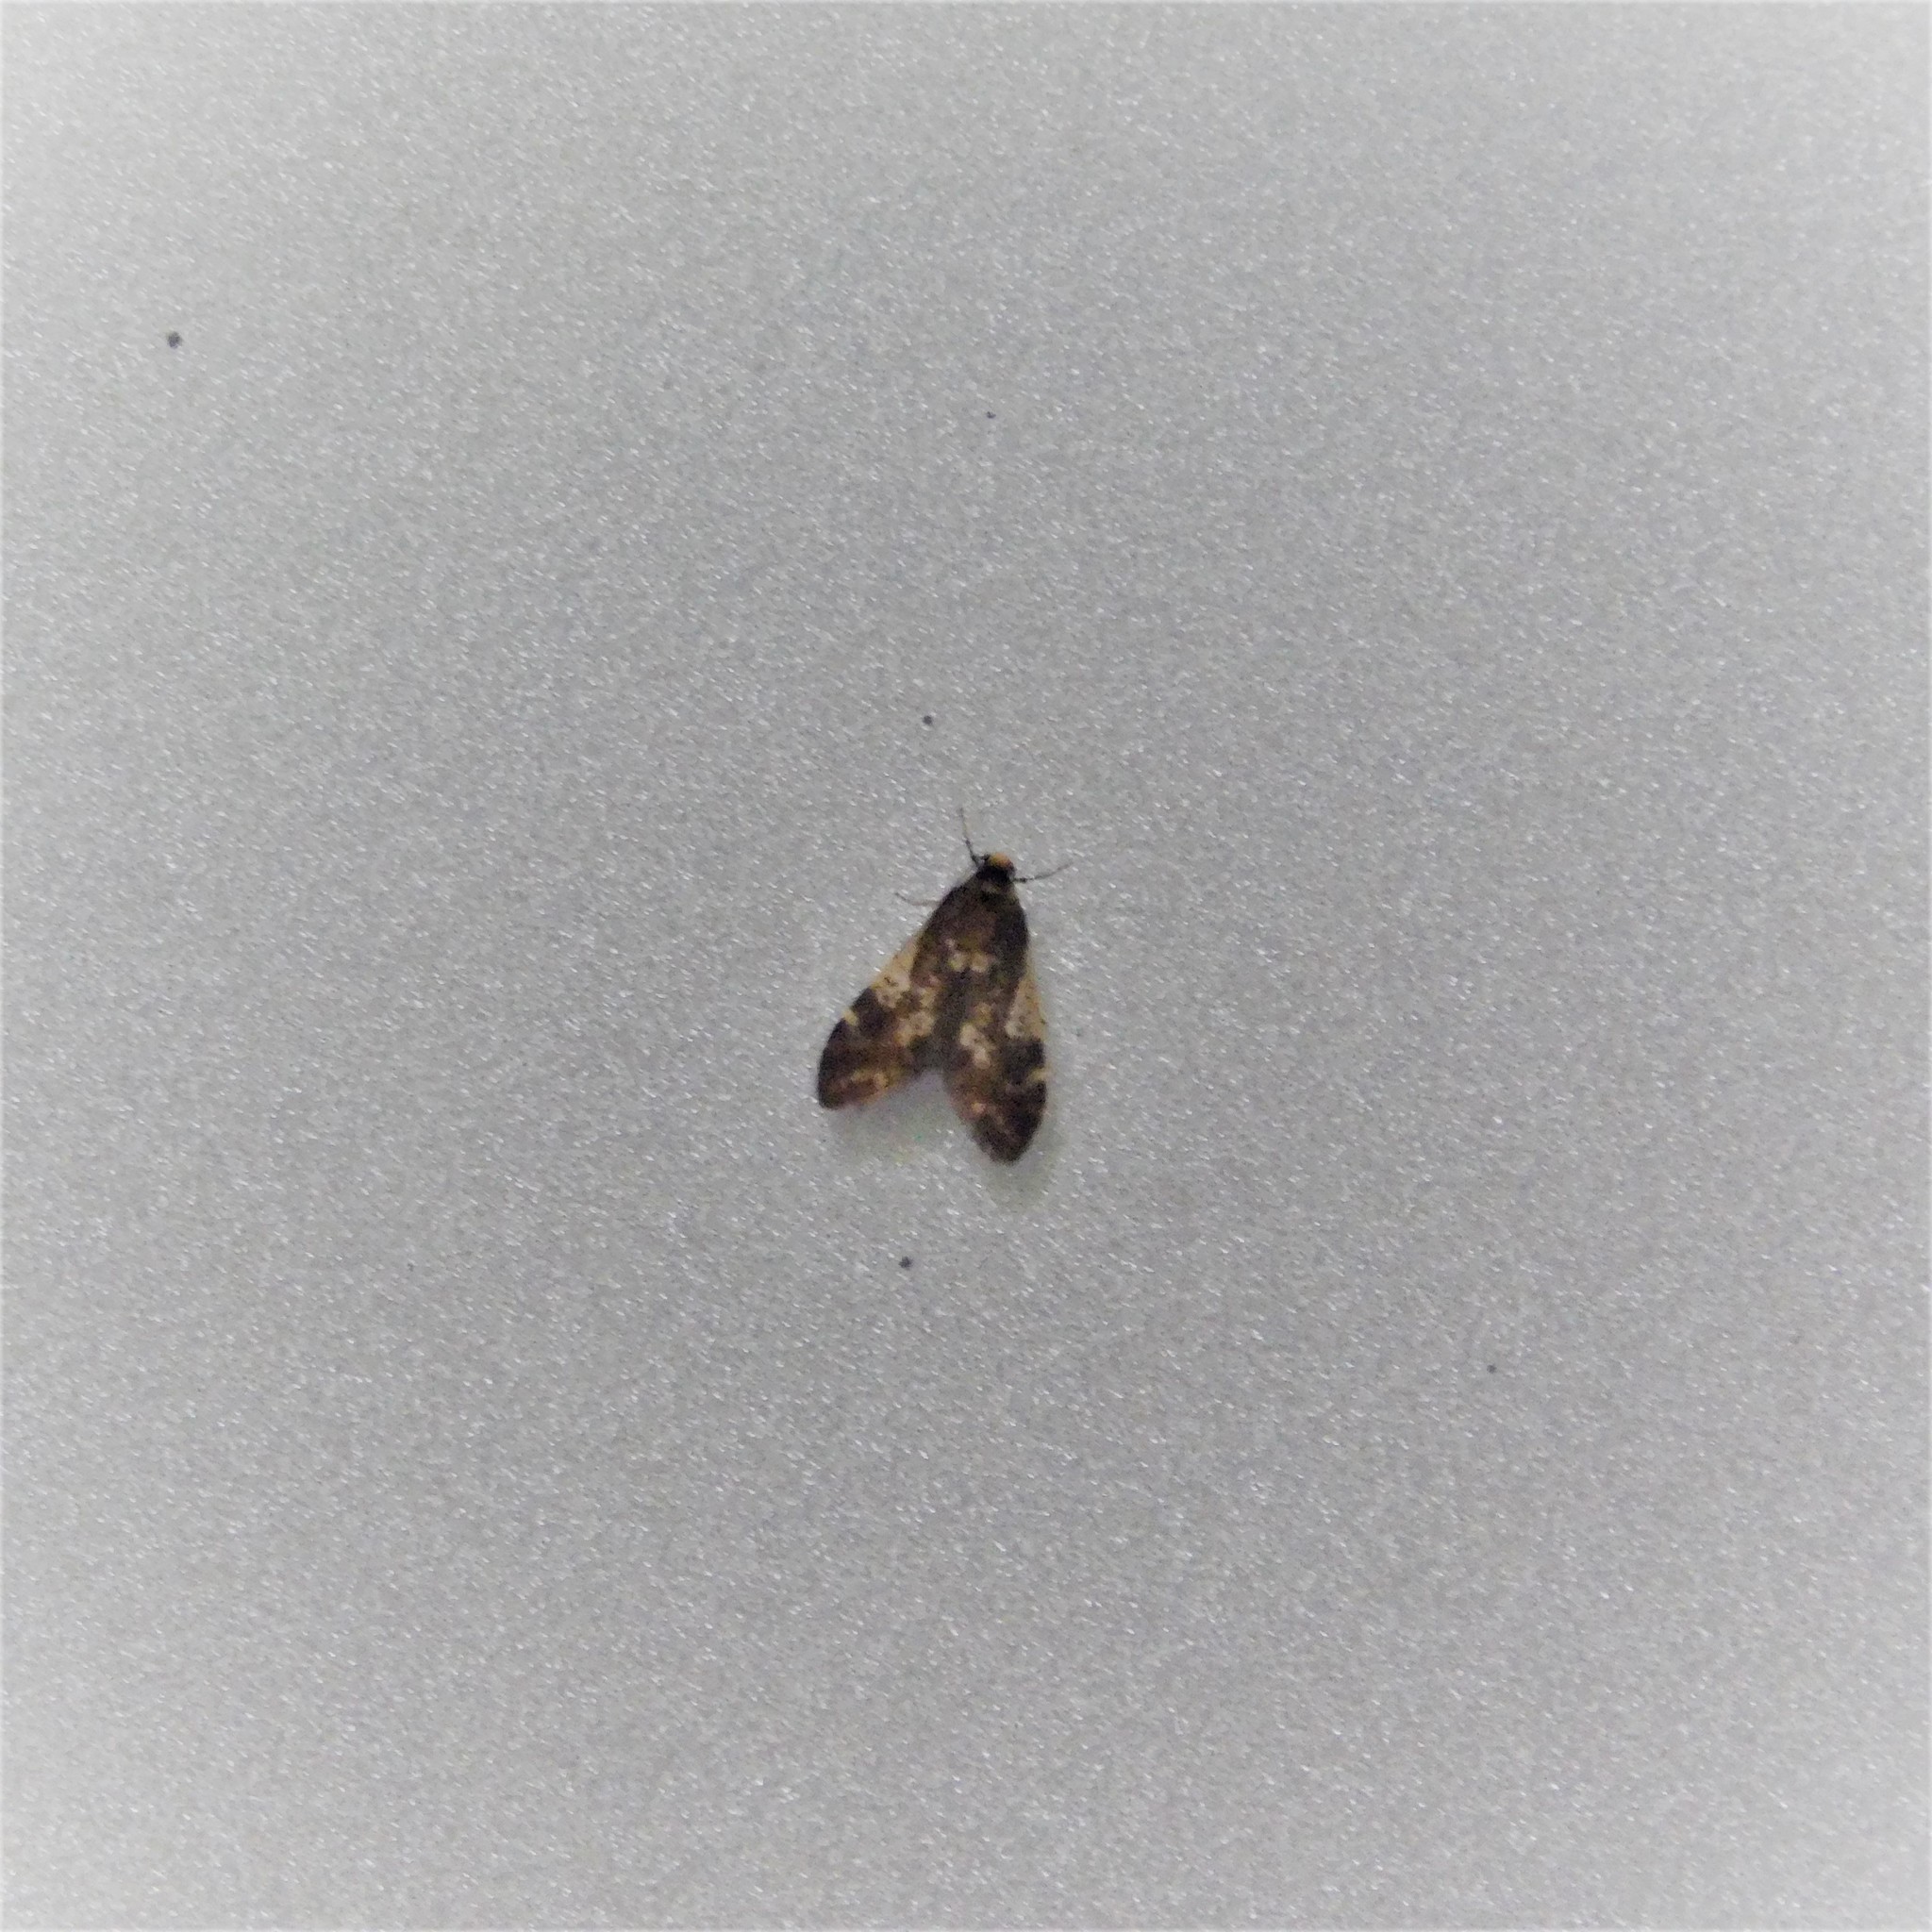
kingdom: Animalia
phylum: Arthropoda
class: Insecta
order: Lepidoptera
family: Psychidae
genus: Lepidoscia
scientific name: Lepidoscia lainodes
